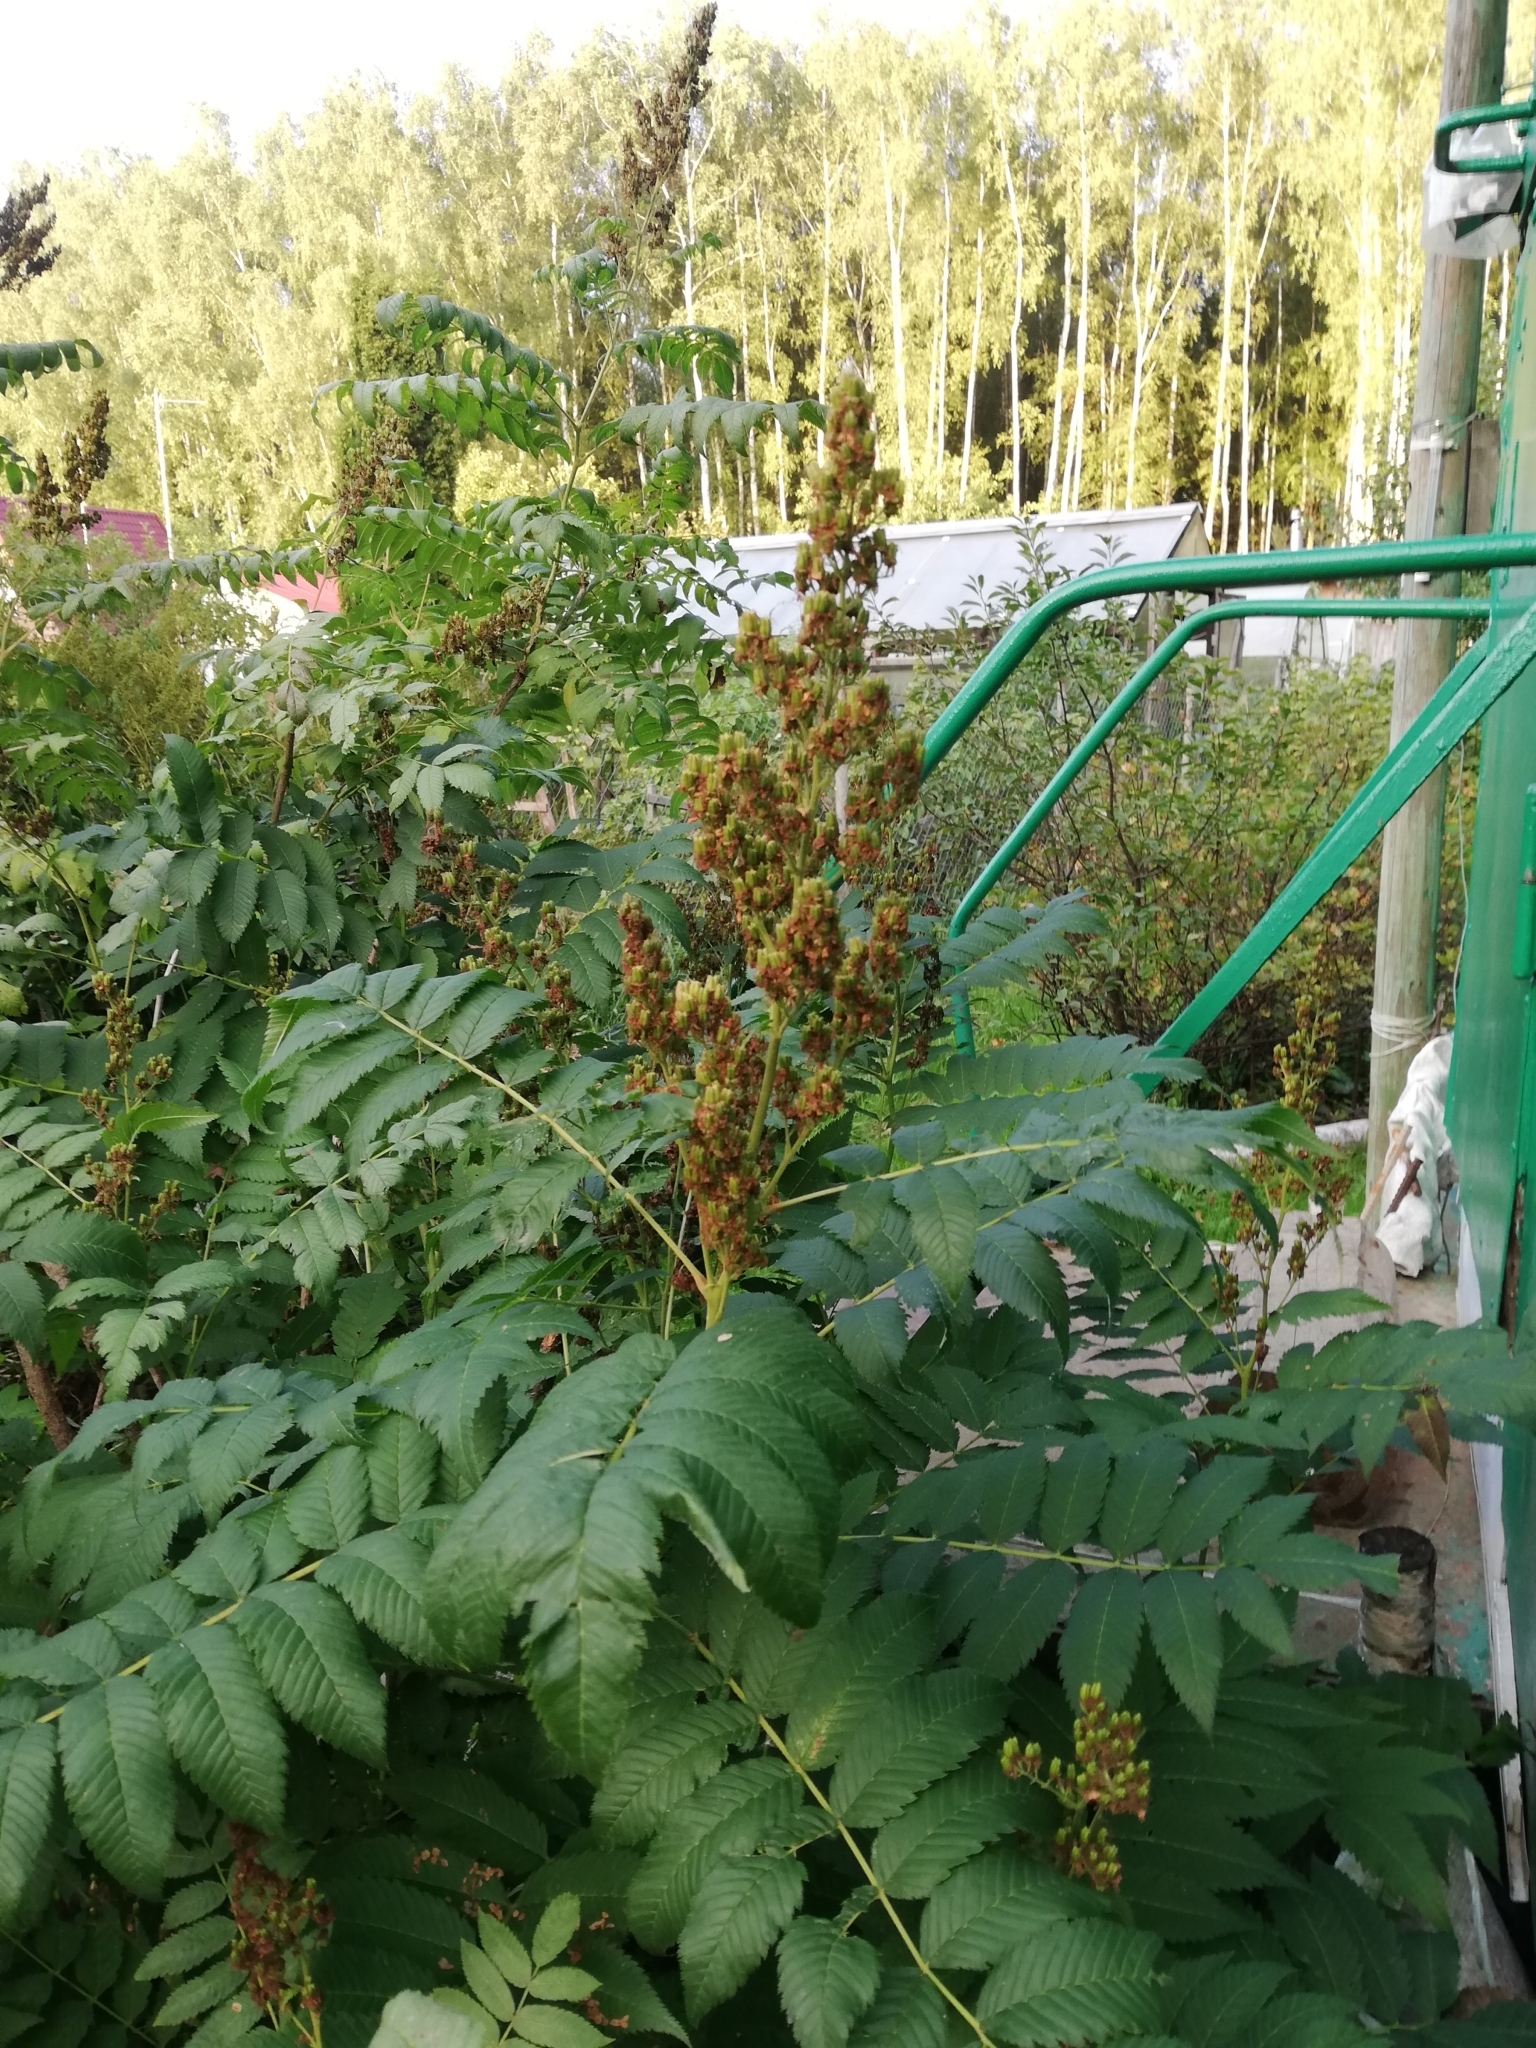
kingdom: Plantae
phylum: Tracheophyta
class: Magnoliopsida
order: Rosales
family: Rosaceae
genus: Sorbaria
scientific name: Sorbaria sorbifolia
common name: False spiraea
